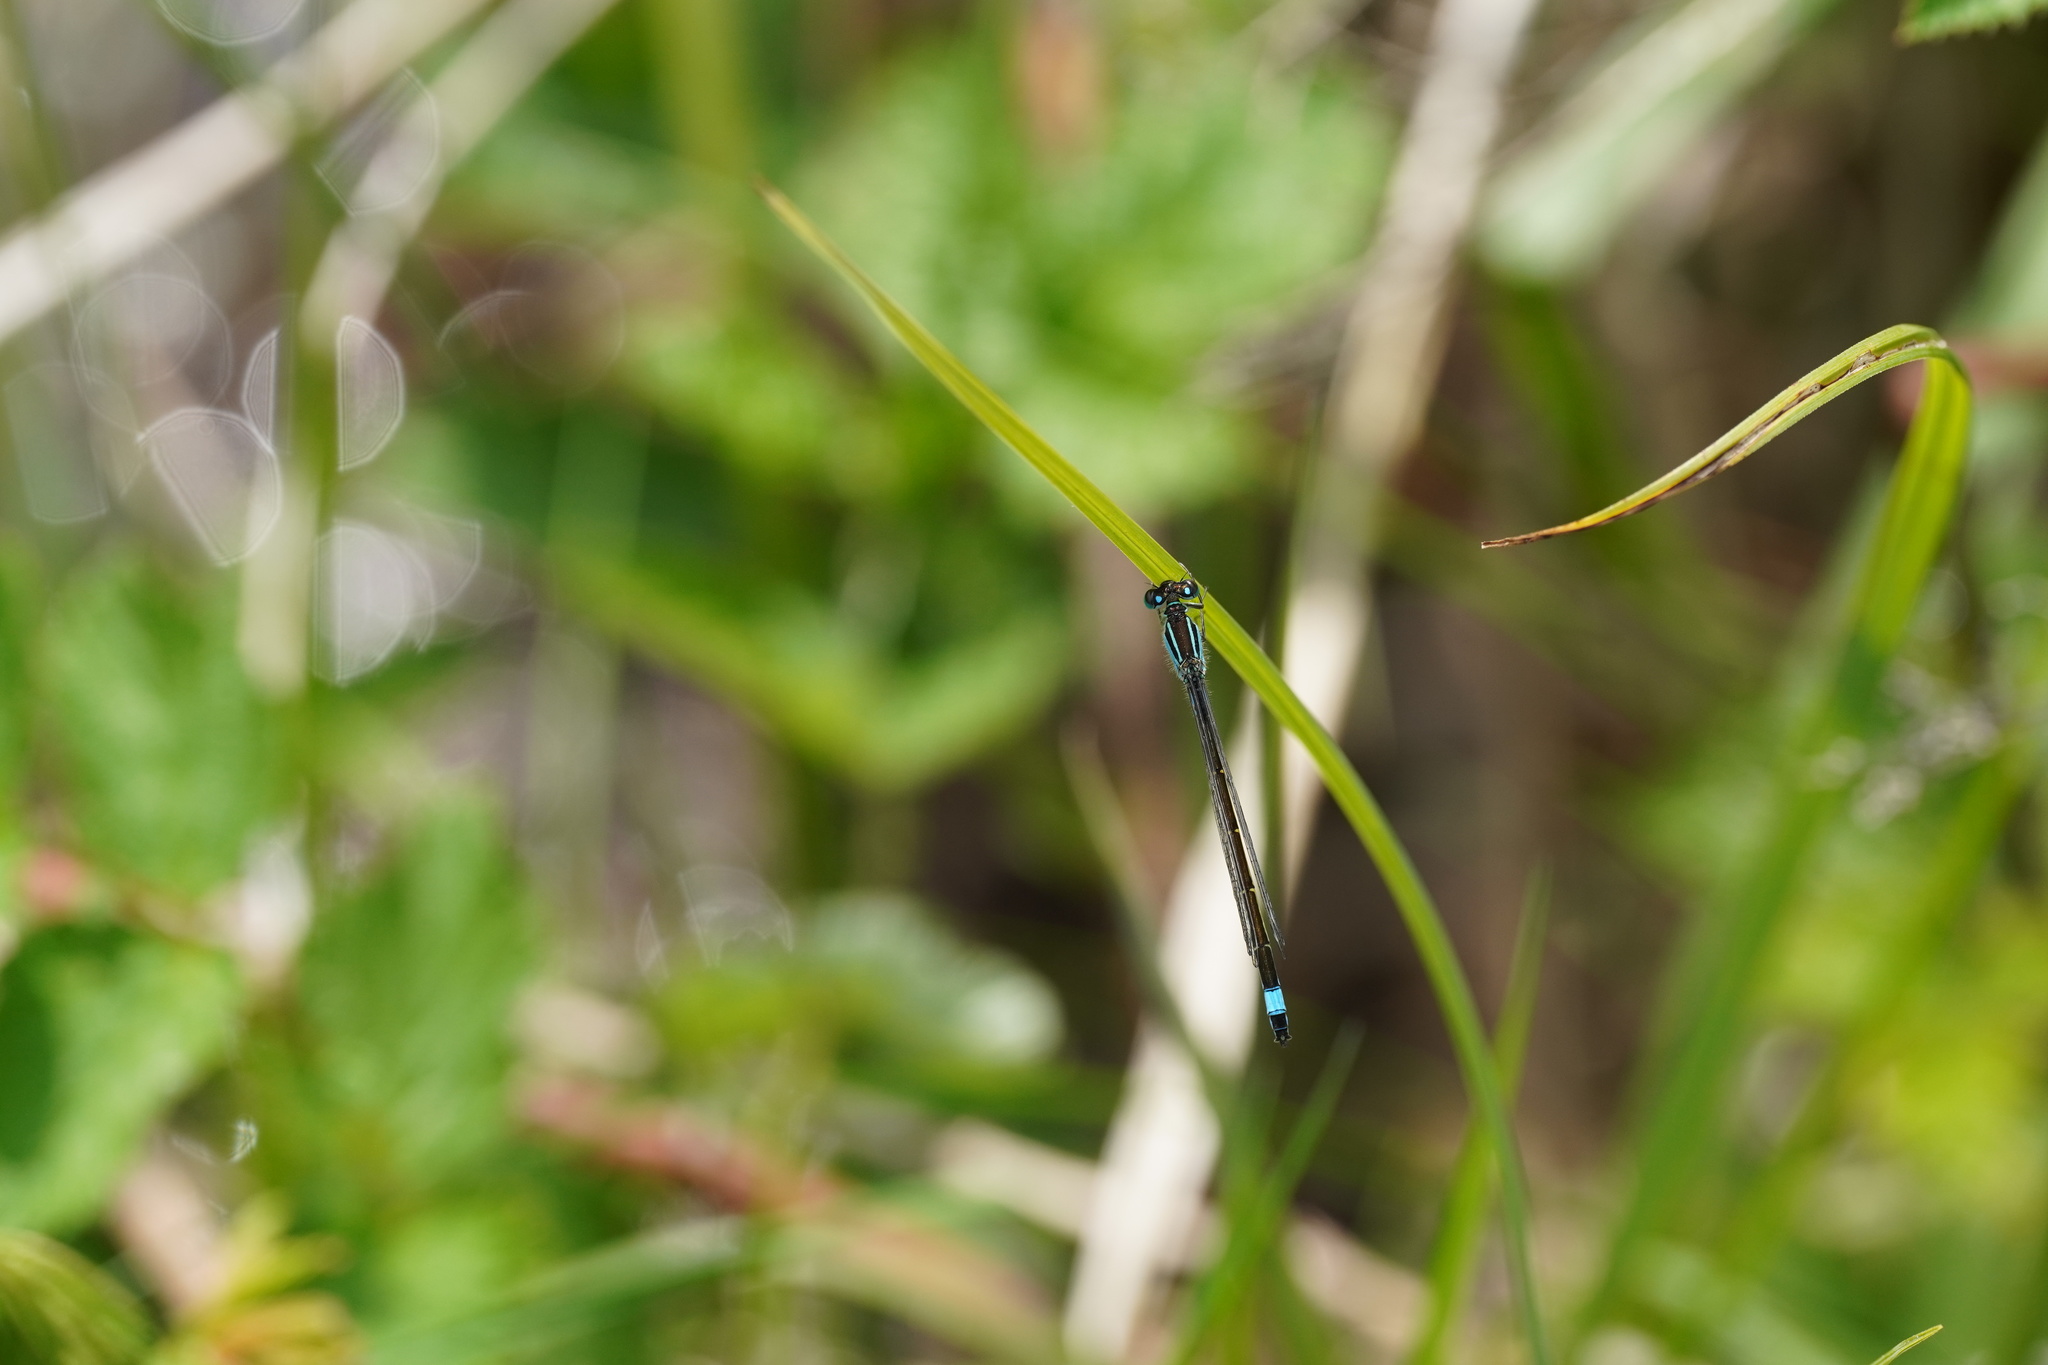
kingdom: Animalia
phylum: Arthropoda
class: Insecta
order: Odonata
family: Coenagrionidae
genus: Ischnura
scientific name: Ischnura elegans
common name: Blue-tailed damselfly
